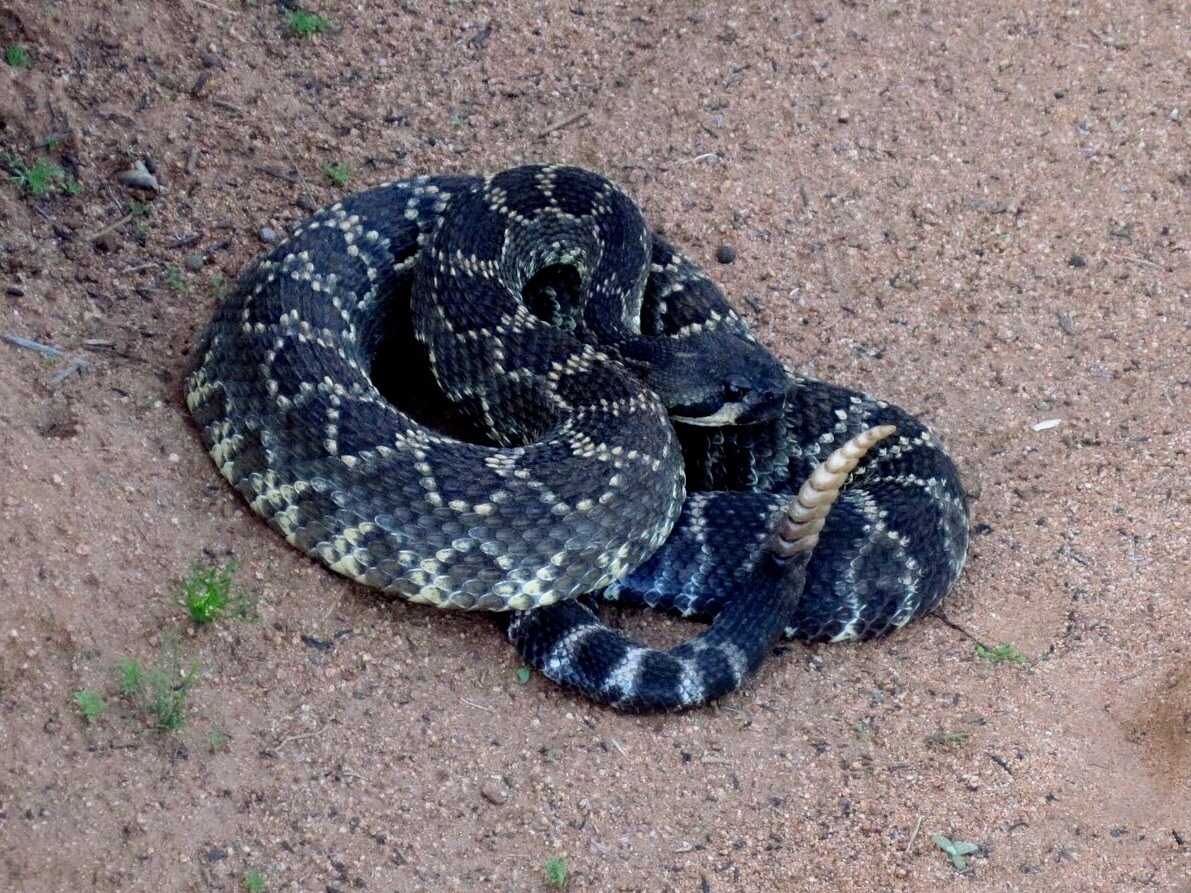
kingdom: Animalia
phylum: Chordata
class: Squamata
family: Viperidae
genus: Crotalus
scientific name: Crotalus oreganus
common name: Abyssus
